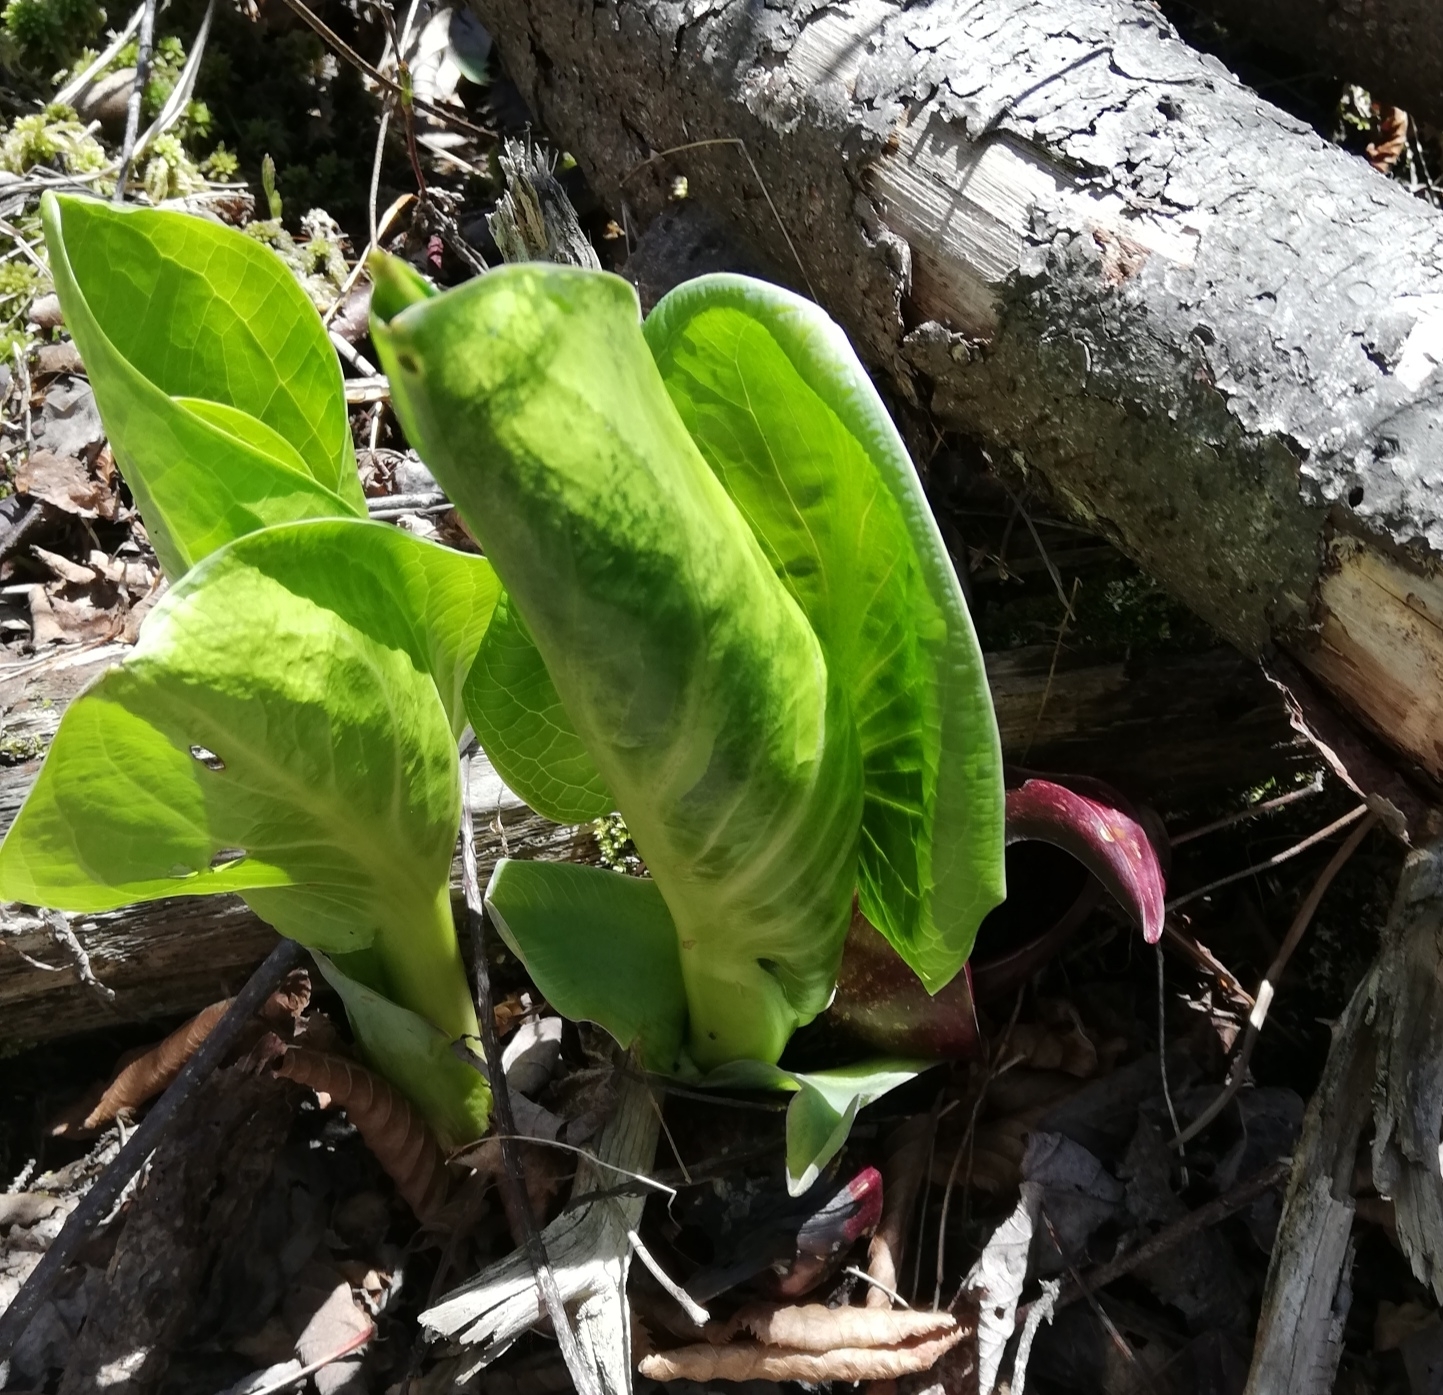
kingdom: Plantae
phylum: Tracheophyta
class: Liliopsida
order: Alismatales
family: Araceae
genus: Symplocarpus
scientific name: Symplocarpus foetidus
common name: Eastern skunk cabbage
